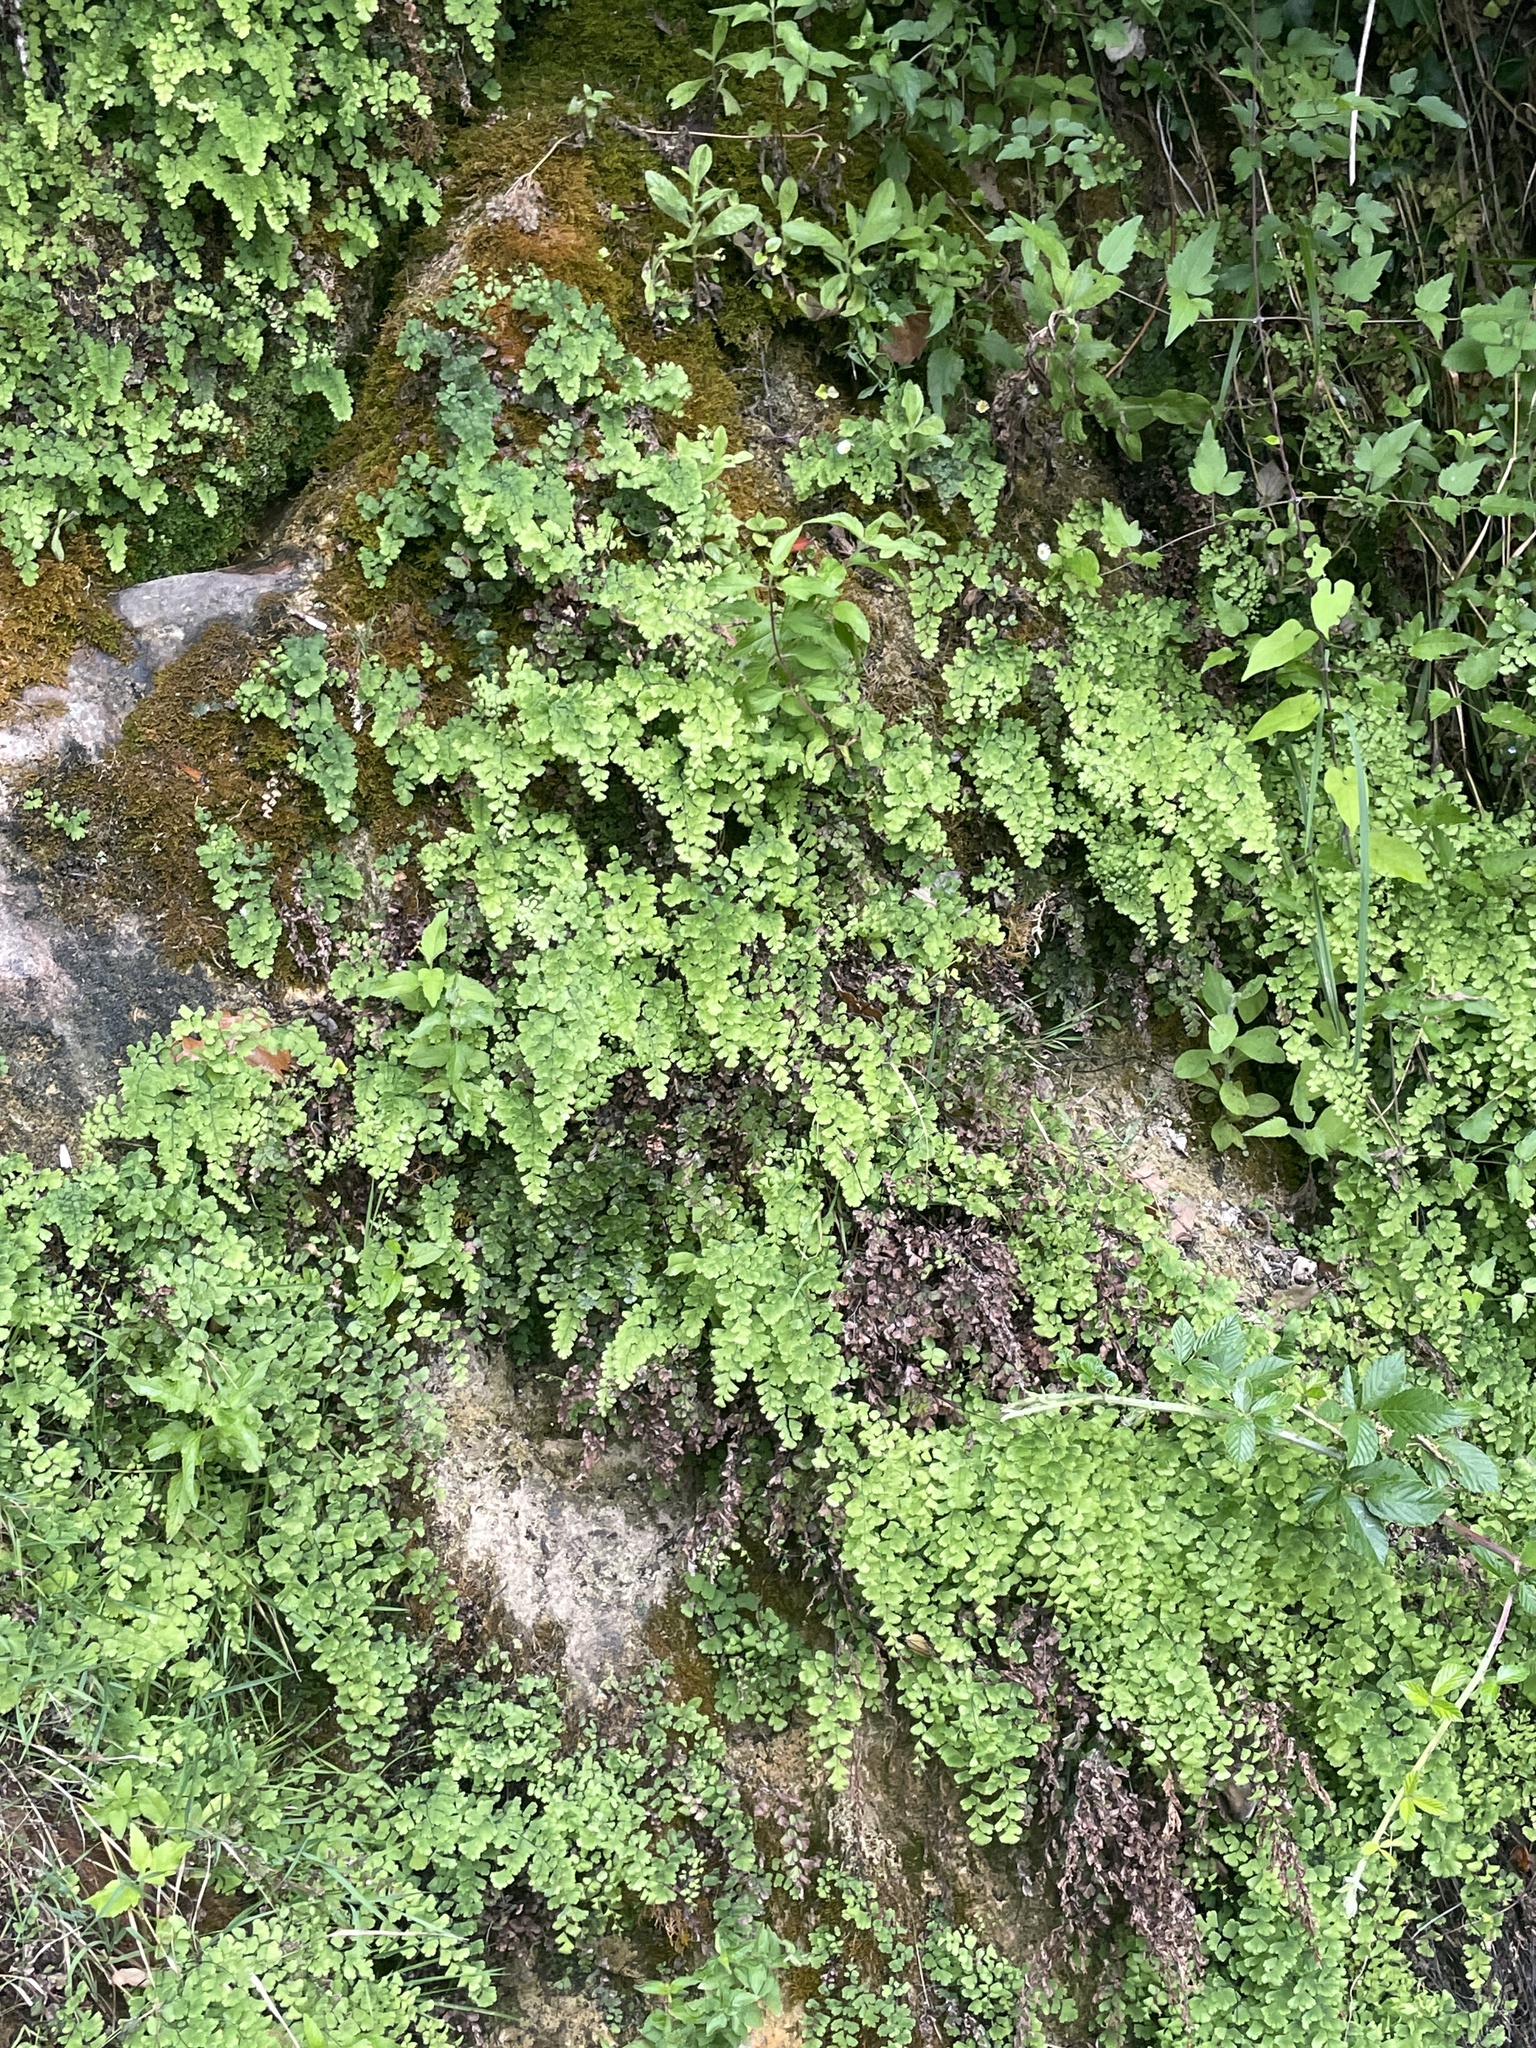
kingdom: Plantae
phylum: Tracheophyta
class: Polypodiopsida
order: Polypodiales
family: Pteridaceae
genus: Adiantum
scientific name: Adiantum capillus-veneris
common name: Maidenhair fern
